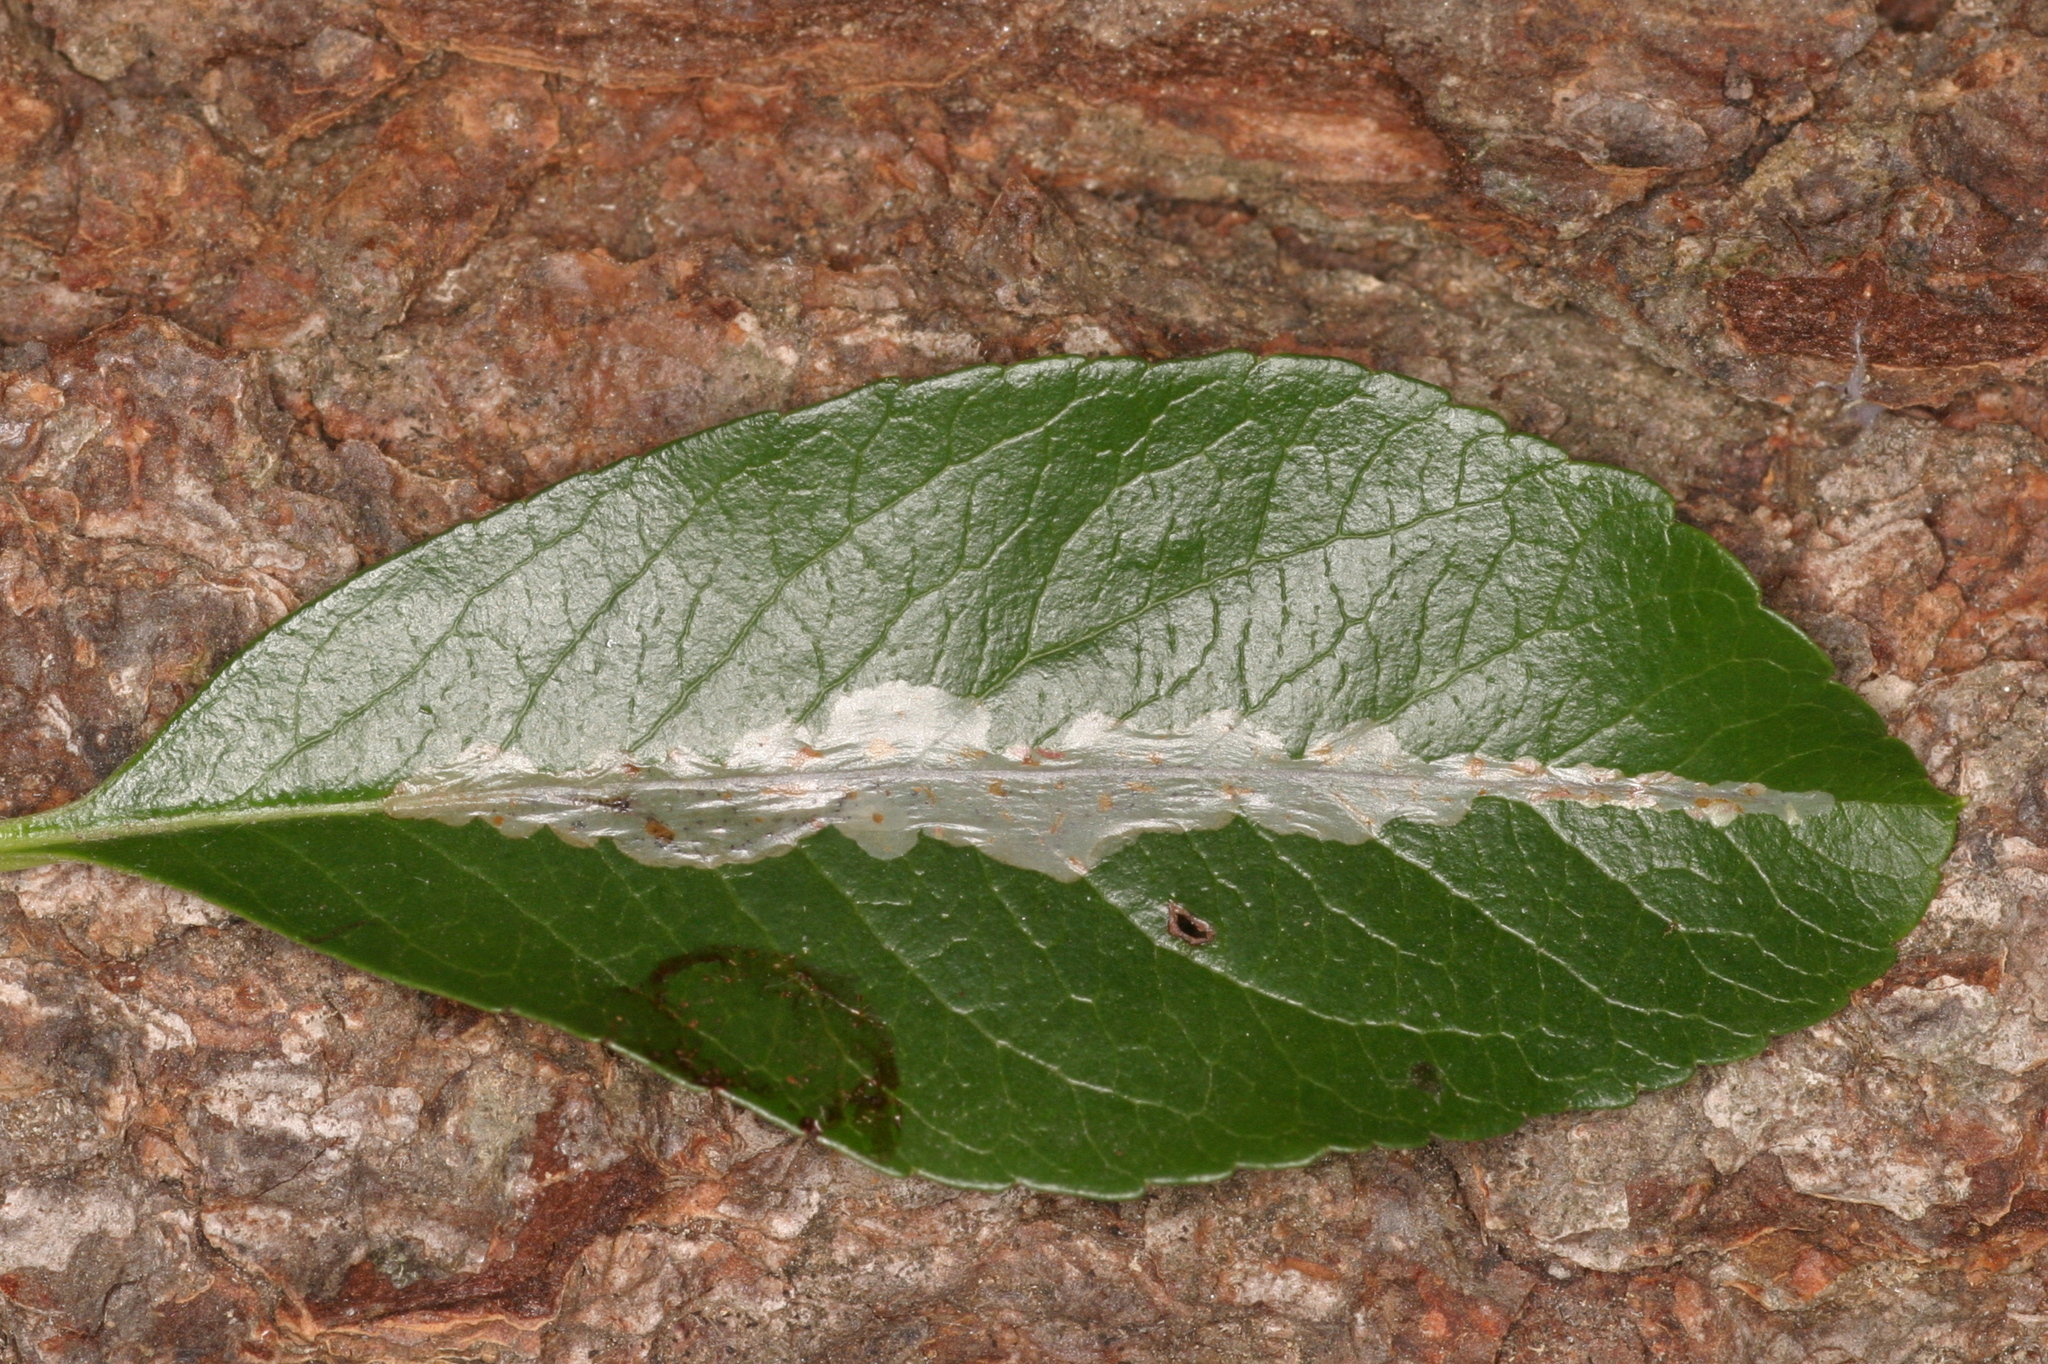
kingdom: Animalia
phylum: Arthropoda
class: Insecta
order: Lepidoptera
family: Gracillariidae
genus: Phyllonorycter
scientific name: Phyllonorycter leucographella
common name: Firethorn leaf-miner
